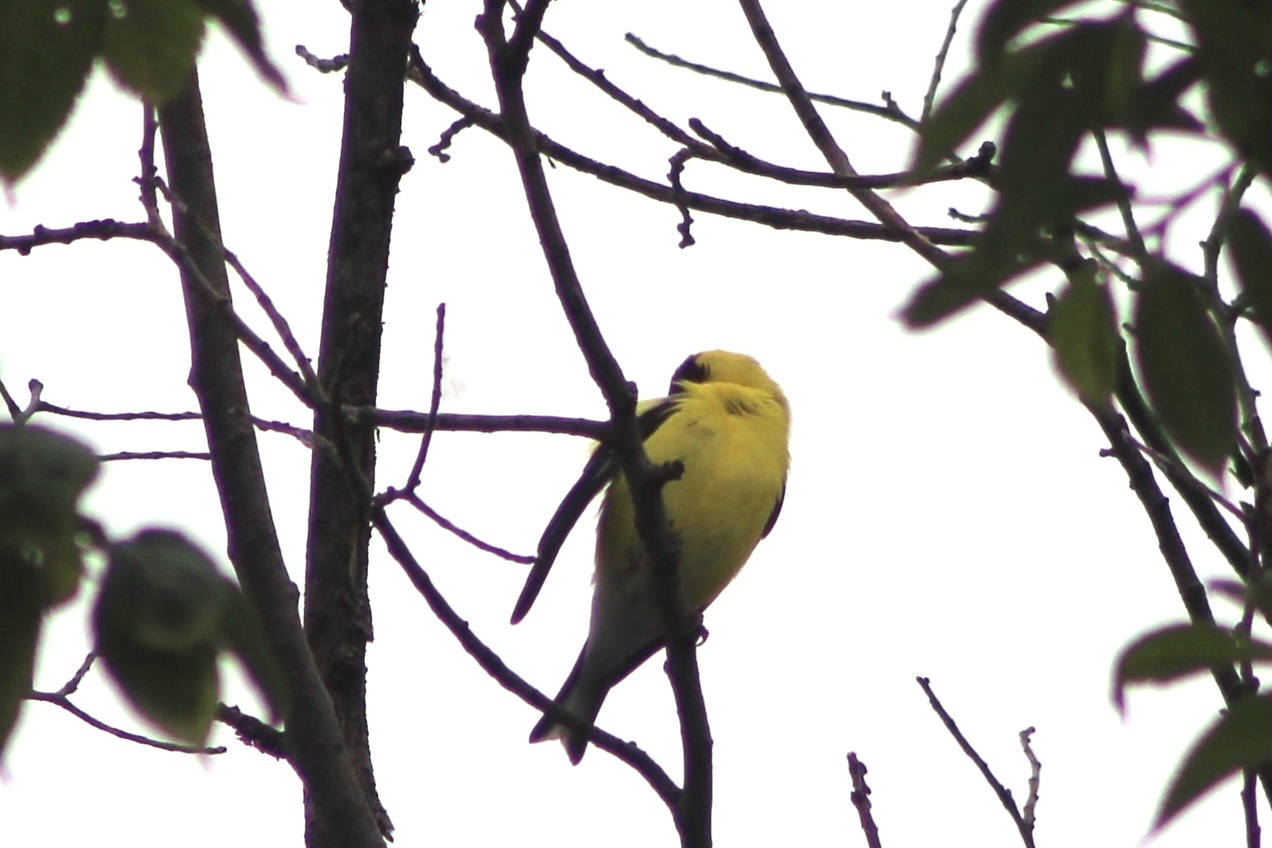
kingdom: Animalia
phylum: Chordata
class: Aves
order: Passeriformes
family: Fringillidae
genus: Spinus
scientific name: Spinus tristis
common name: American goldfinch
